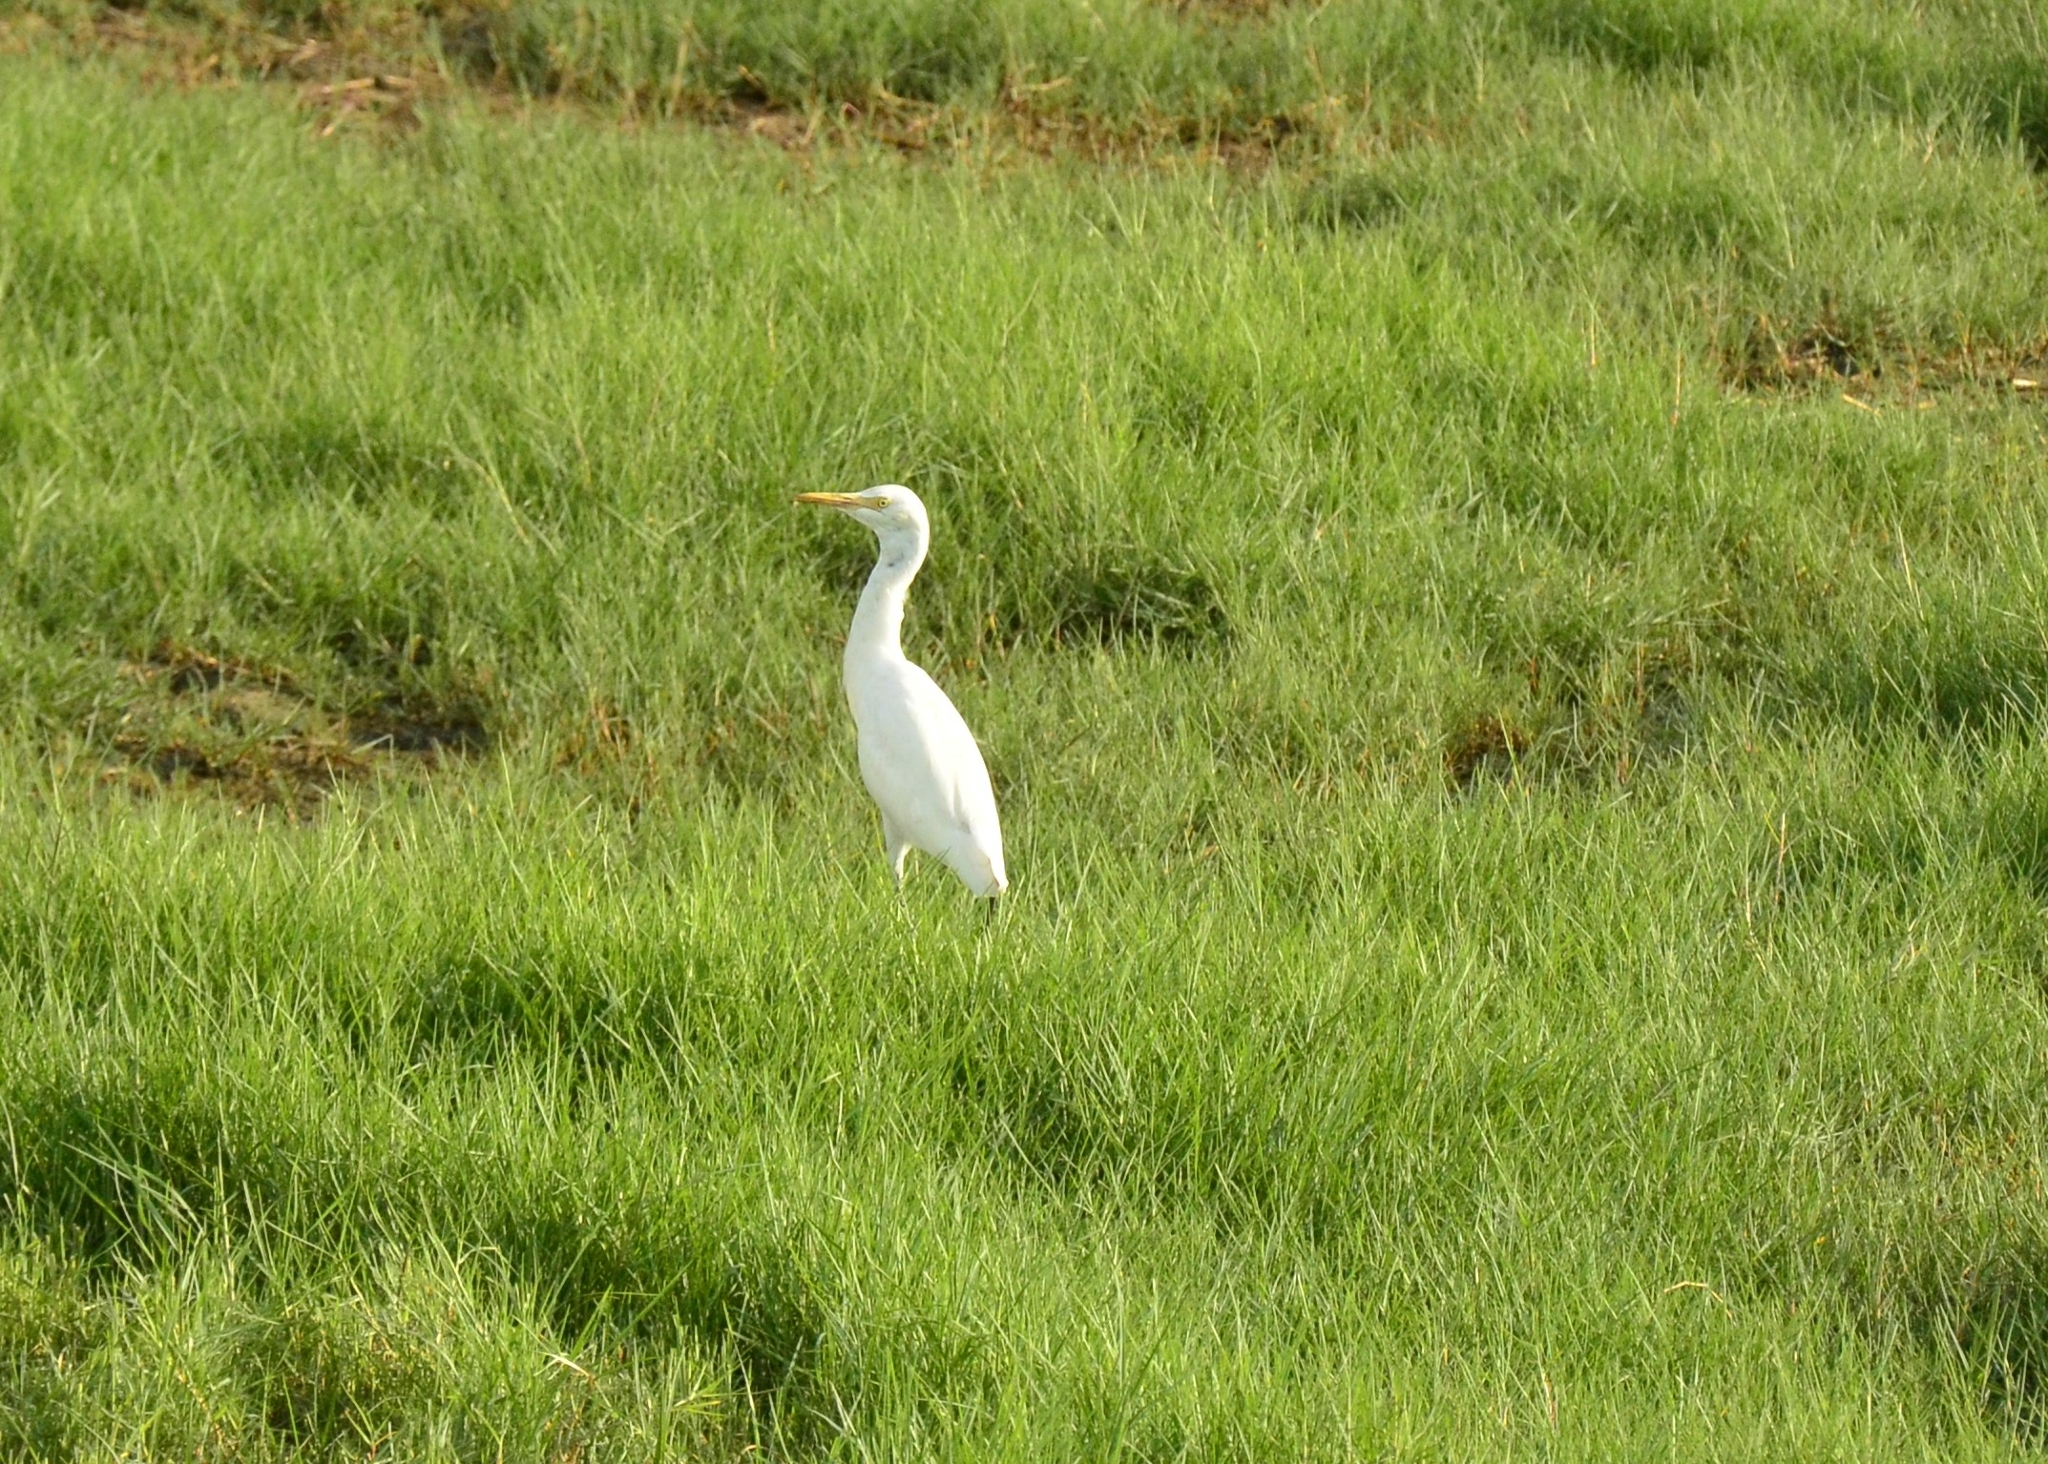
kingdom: Animalia
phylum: Chordata
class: Aves
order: Pelecaniformes
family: Ardeidae
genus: Bubulcus
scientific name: Bubulcus coromandus
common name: Eastern cattle egret
